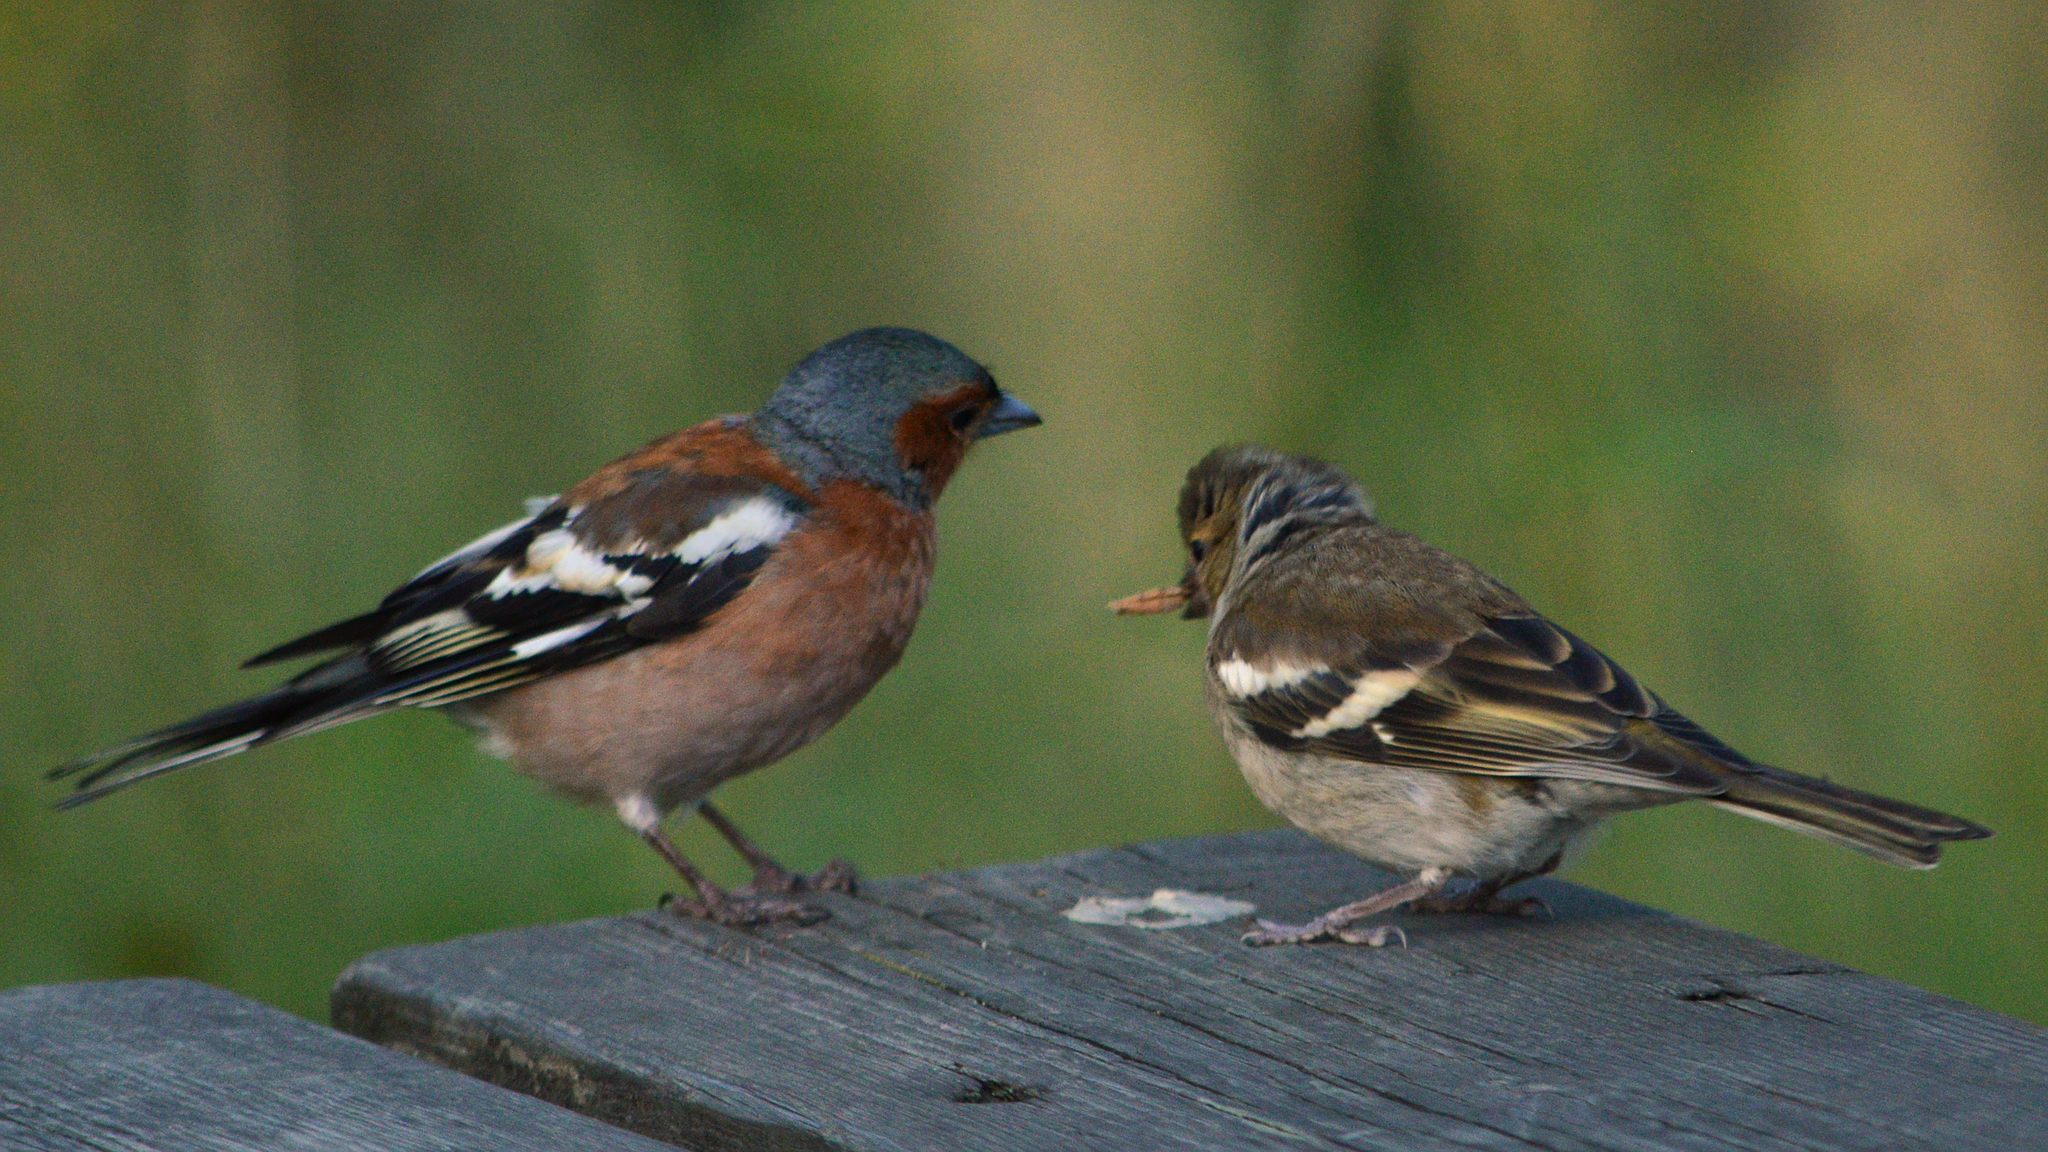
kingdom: Animalia
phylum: Chordata
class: Aves
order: Passeriformes
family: Fringillidae
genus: Fringilla
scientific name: Fringilla coelebs
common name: Common chaffinch
